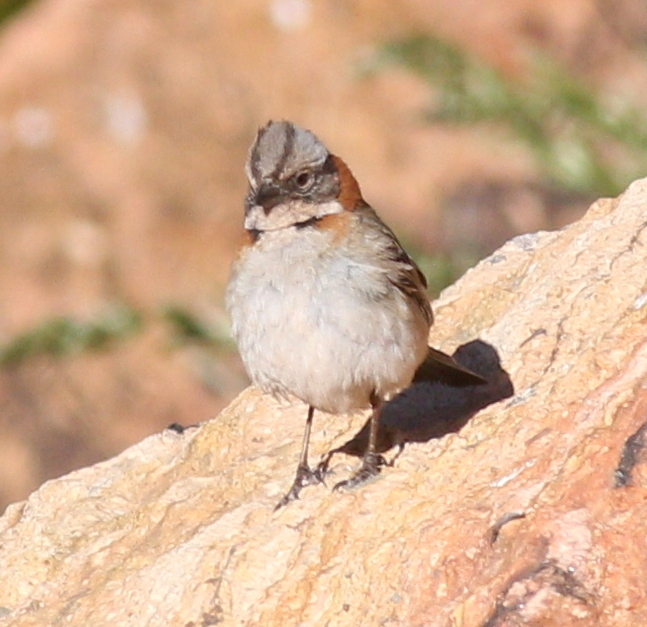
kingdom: Animalia
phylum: Chordata
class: Aves
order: Passeriformes
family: Passerellidae
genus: Zonotrichia
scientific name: Zonotrichia capensis
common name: Rufous-collared sparrow
